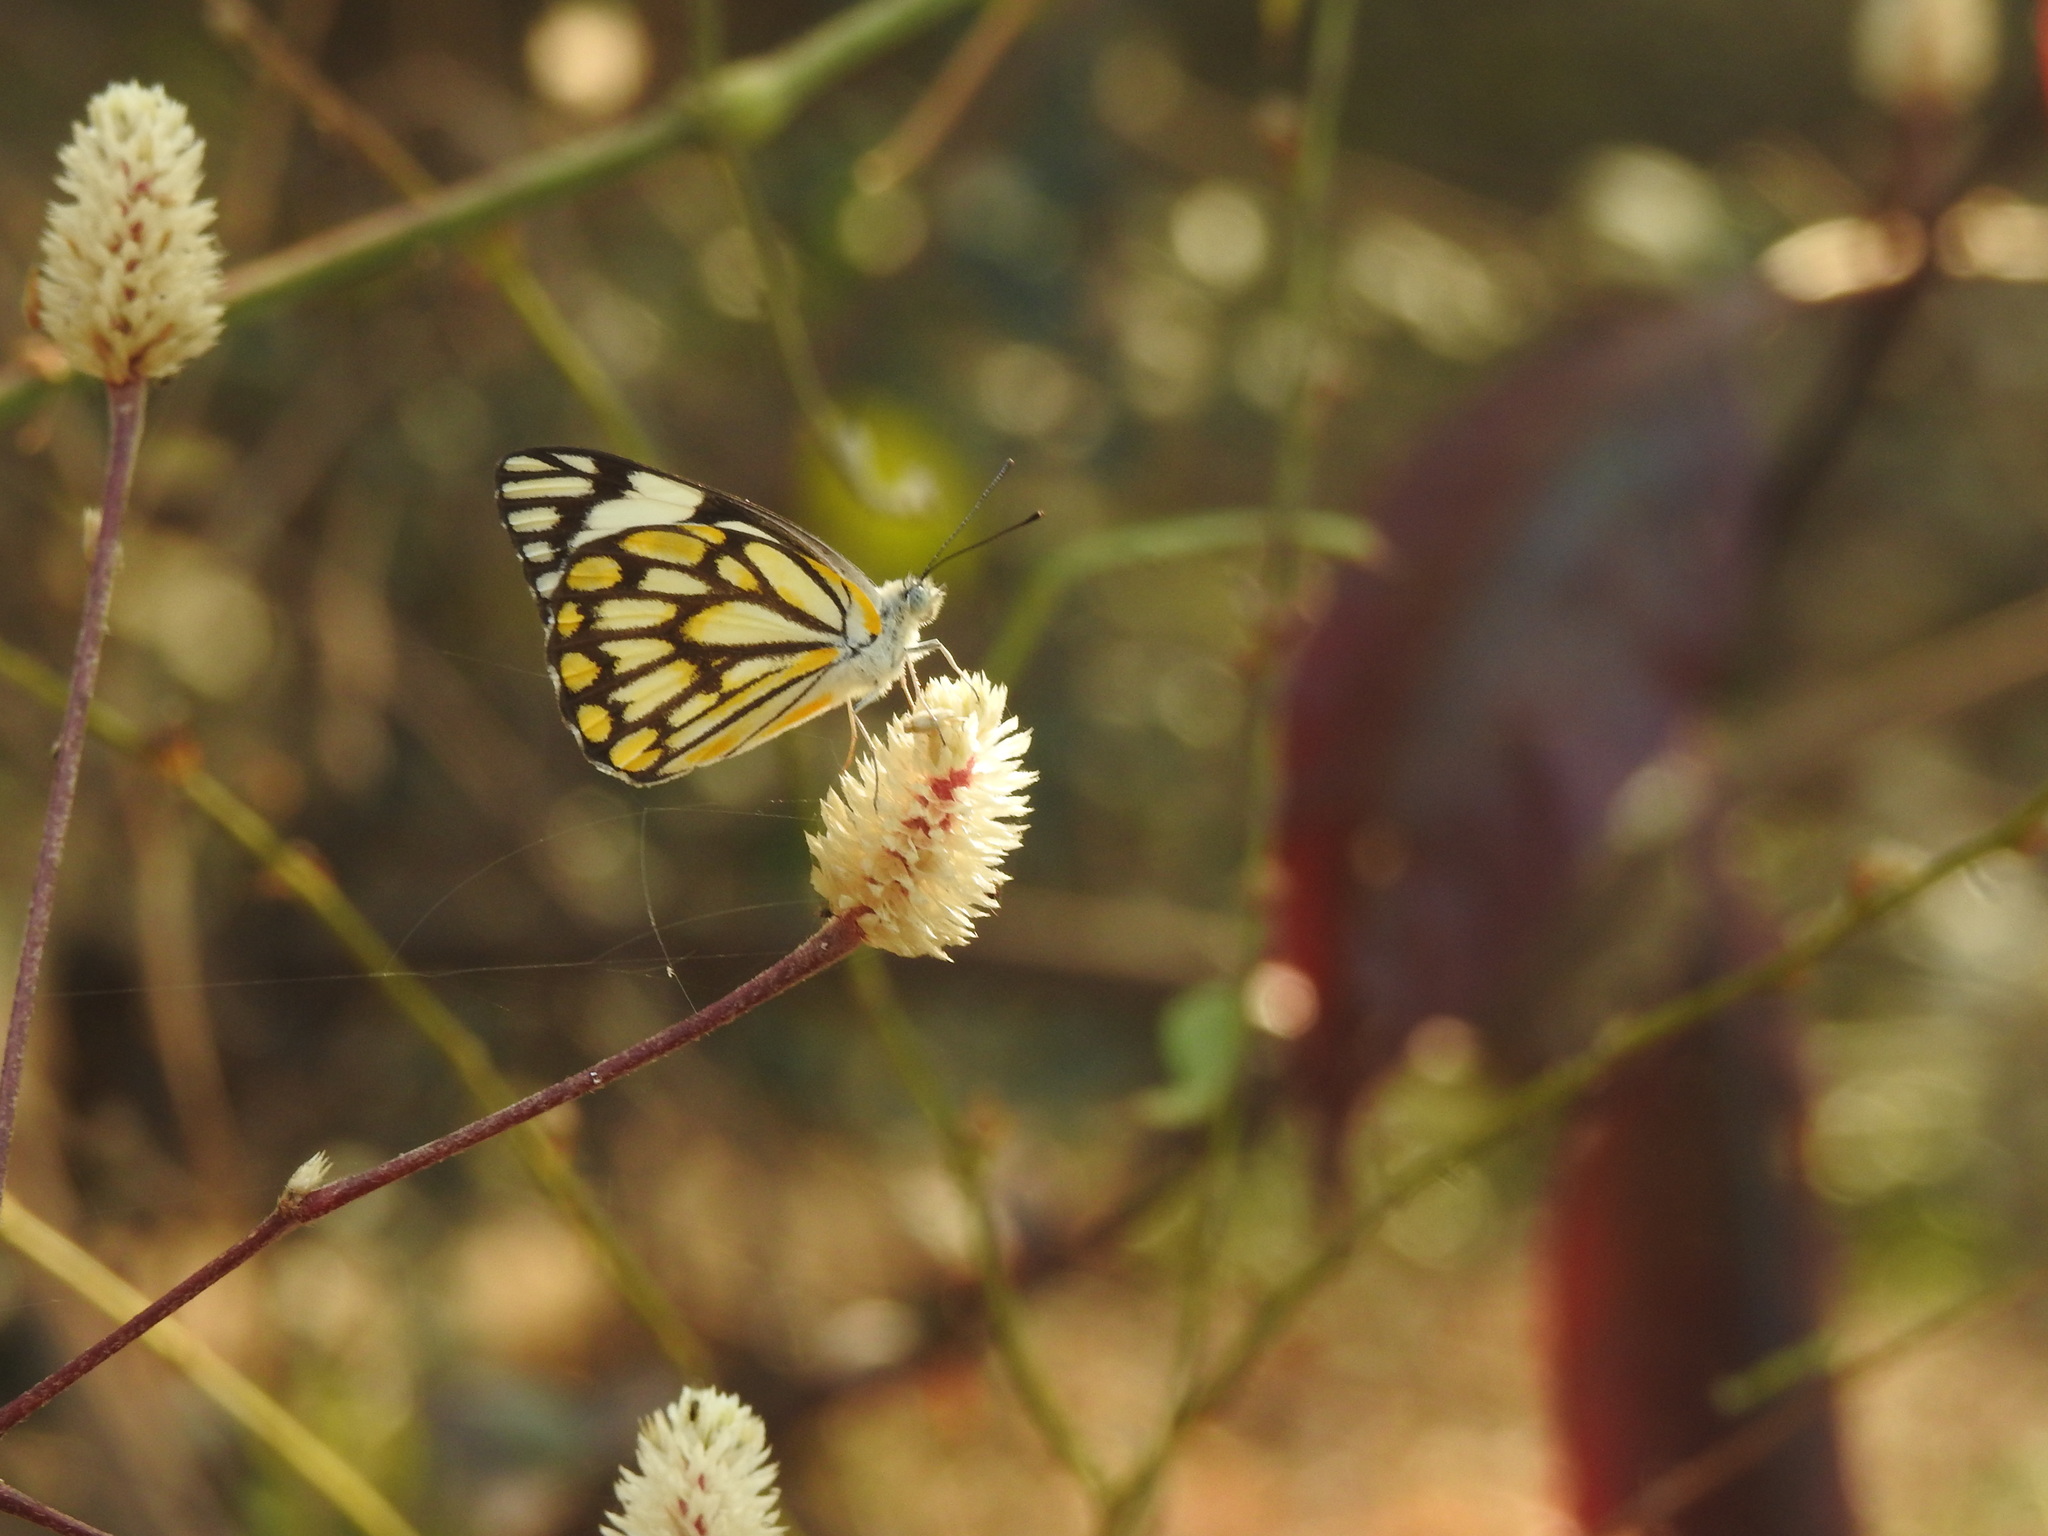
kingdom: Animalia
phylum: Arthropoda
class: Insecta
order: Lepidoptera
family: Pieridae
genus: Belenois
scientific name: Belenois aurota
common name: Brown-veined white
